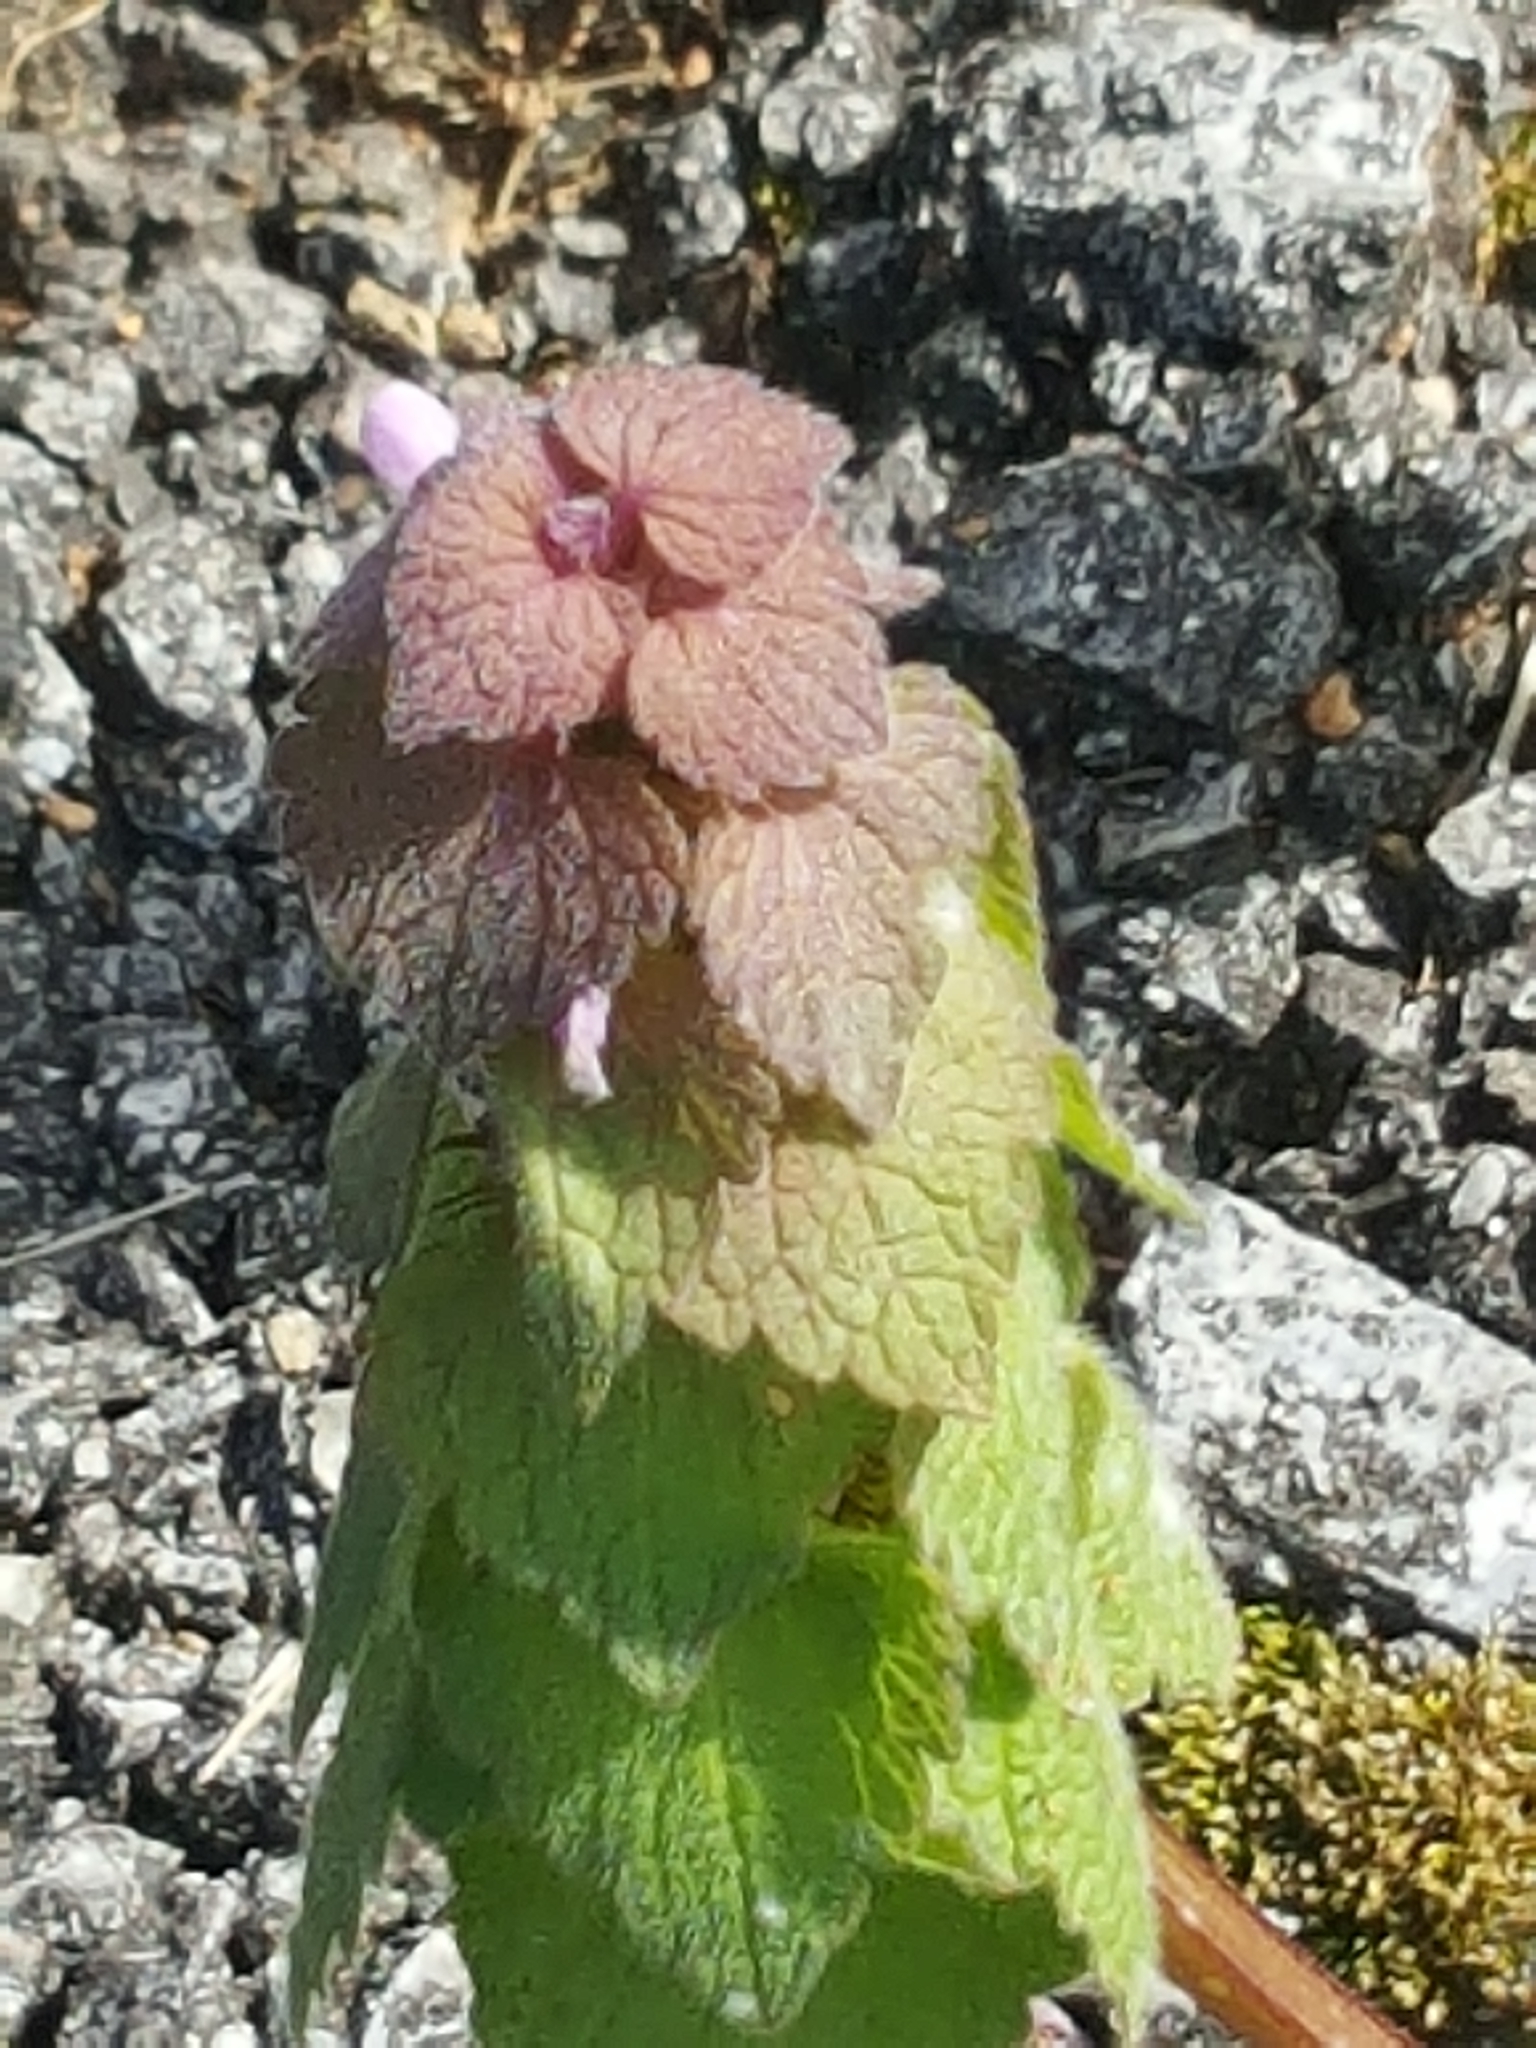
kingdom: Plantae
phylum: Tracheophyta
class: Magnoliopsida
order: Lamiales
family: Lamiaceae
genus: Lamium
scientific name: Lamium purpureum
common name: Red dead-nettle
